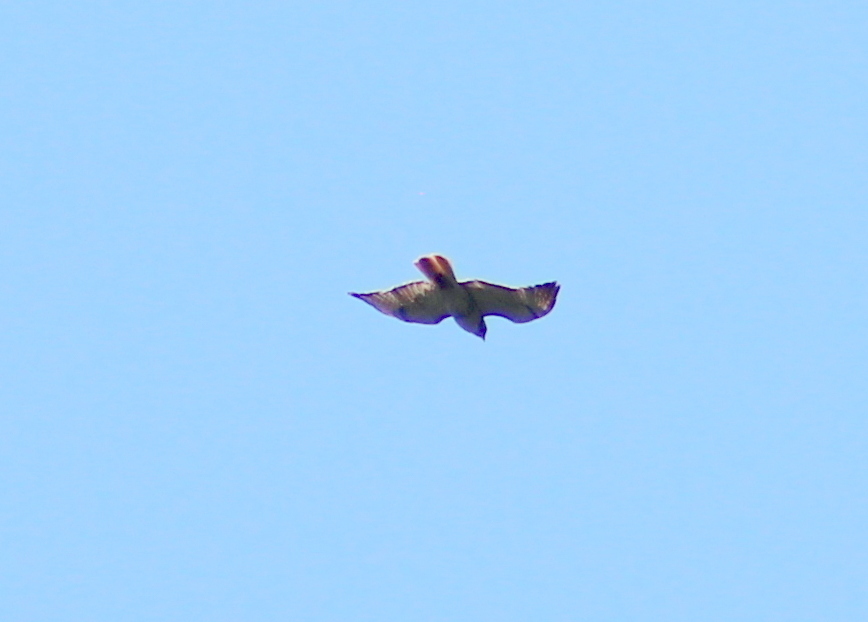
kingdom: Animalia
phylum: Chordata
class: Aves
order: Accipitriformes
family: Accipitridae
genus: Buteo
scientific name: Buteo jamaicensis
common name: Red-tailed hawk
